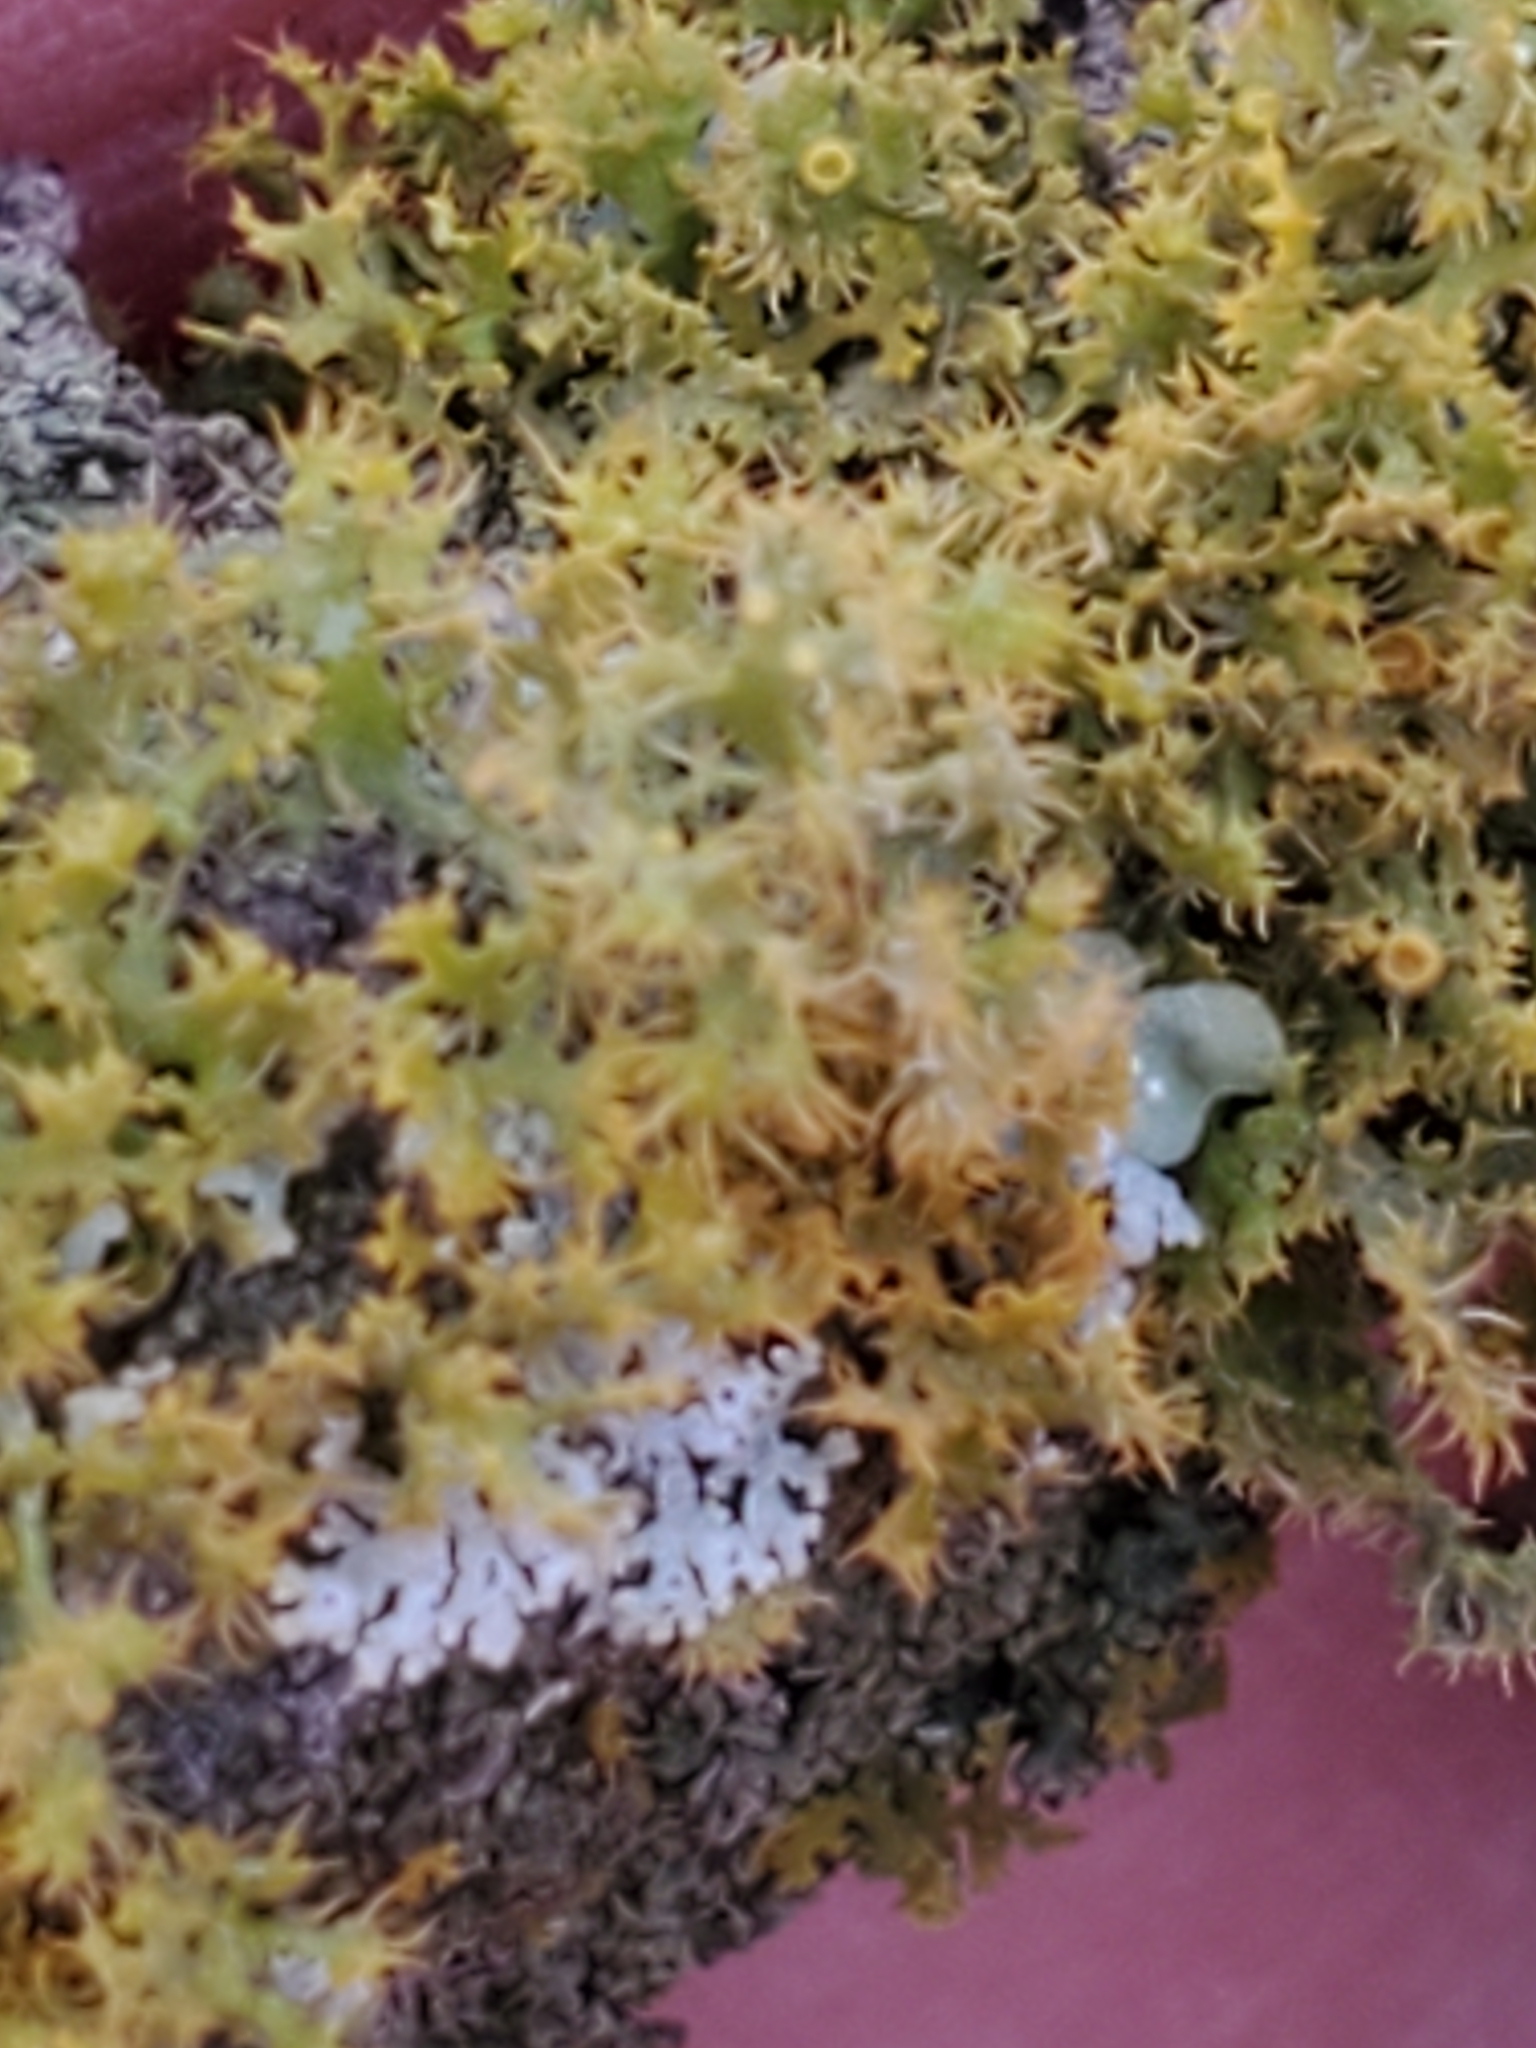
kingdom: Fungi
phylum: Ascomycota
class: Lecanoromycetes
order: Teloschistales
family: Teloschistaceae
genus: Niorma
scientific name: Niorma chrysophthalma
